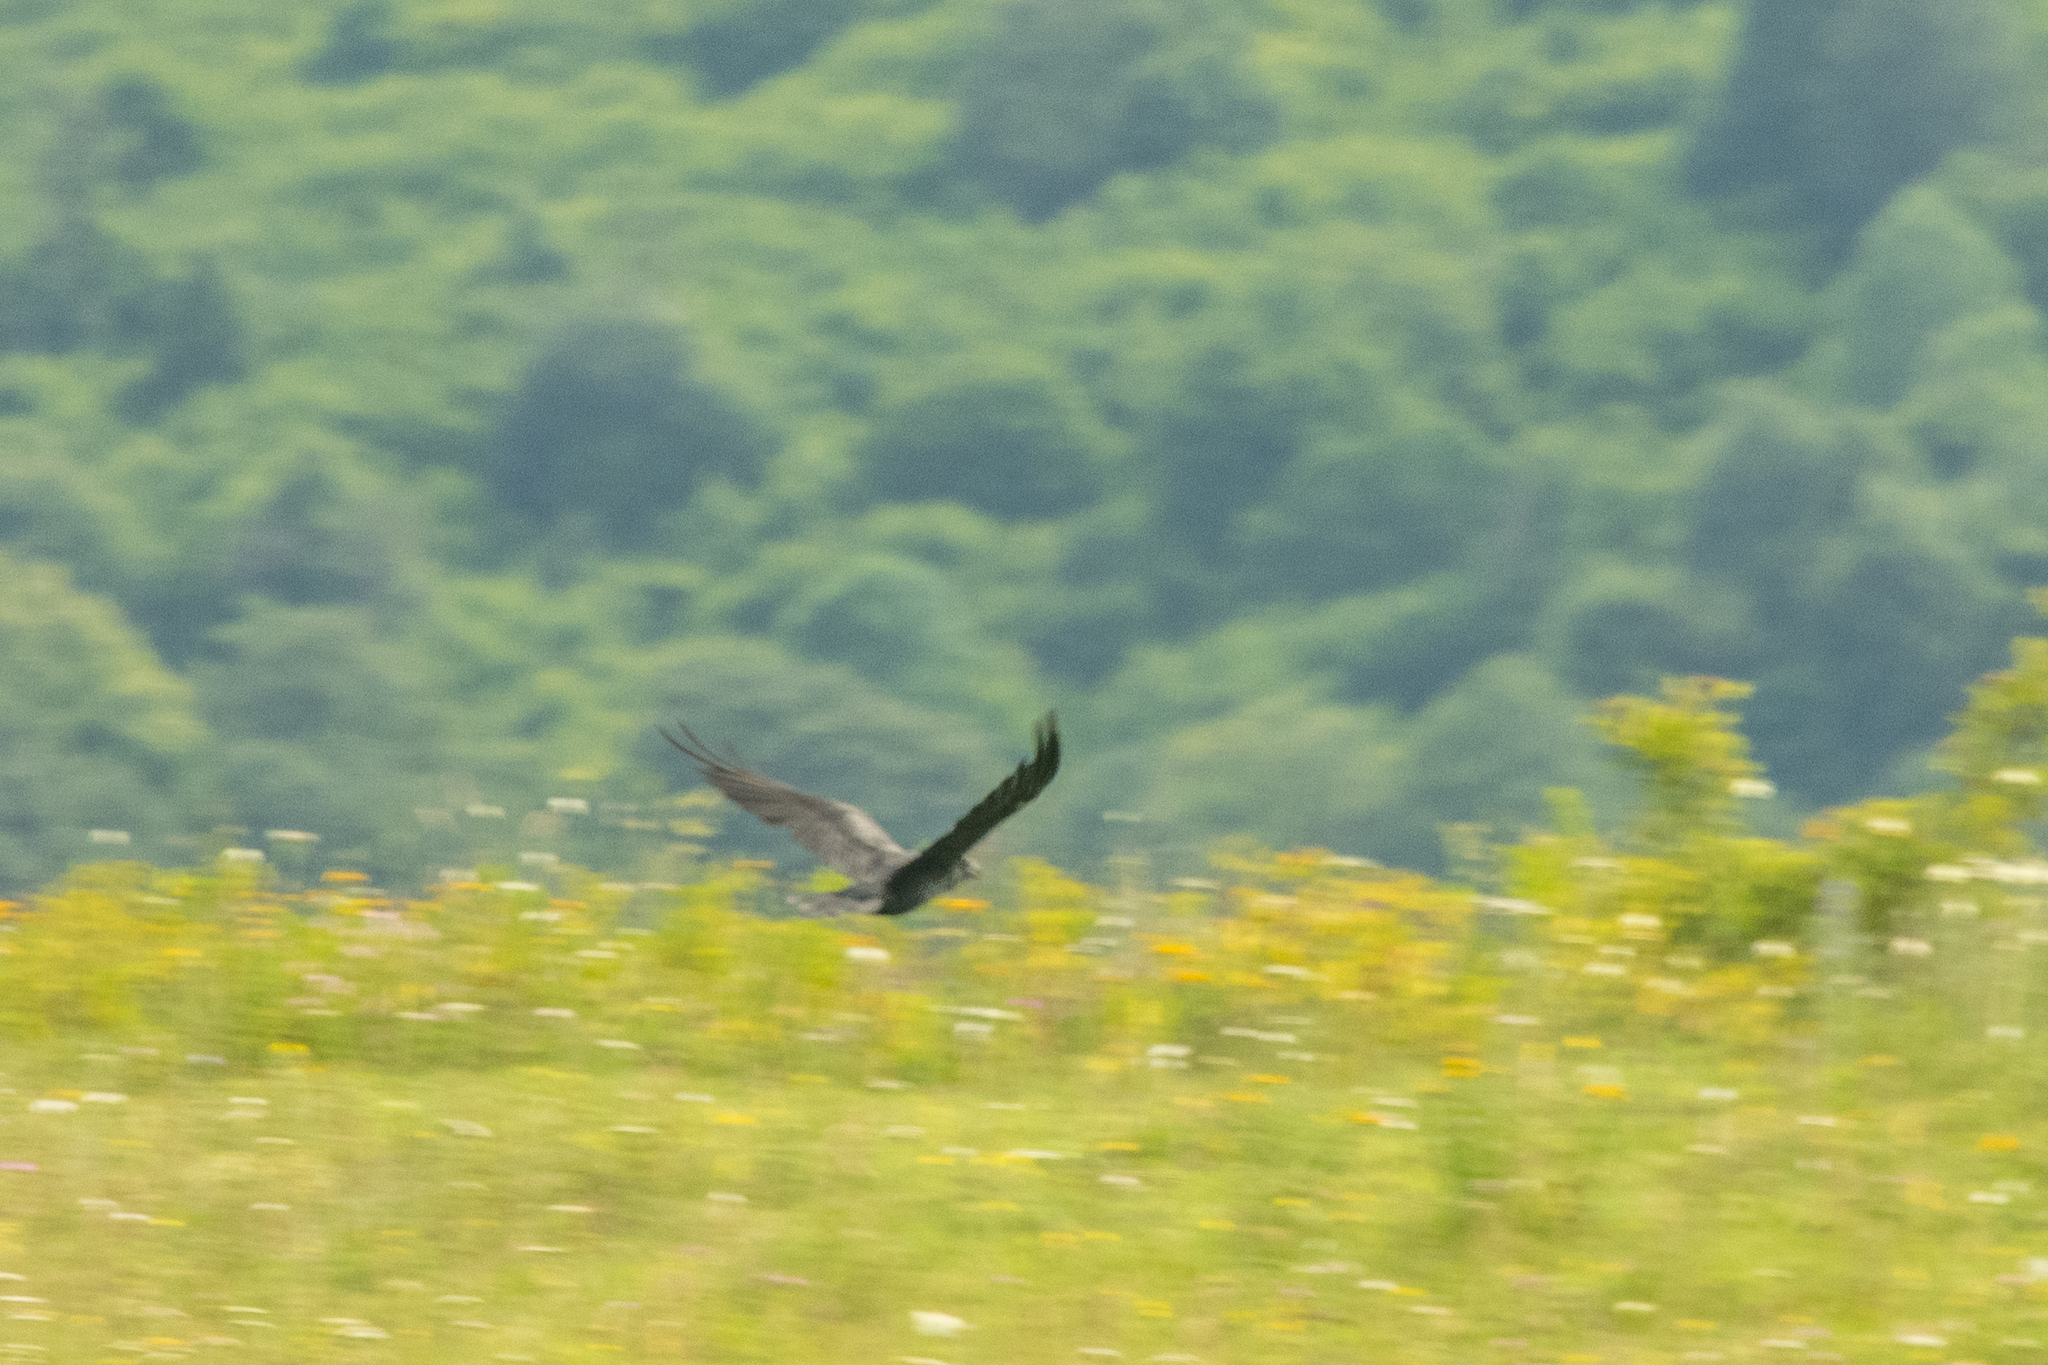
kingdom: Animalia
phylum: Chordata
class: Aves
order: Passeriformes
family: Corvidae
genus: Corvus
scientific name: Corvus corax
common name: Common raven
